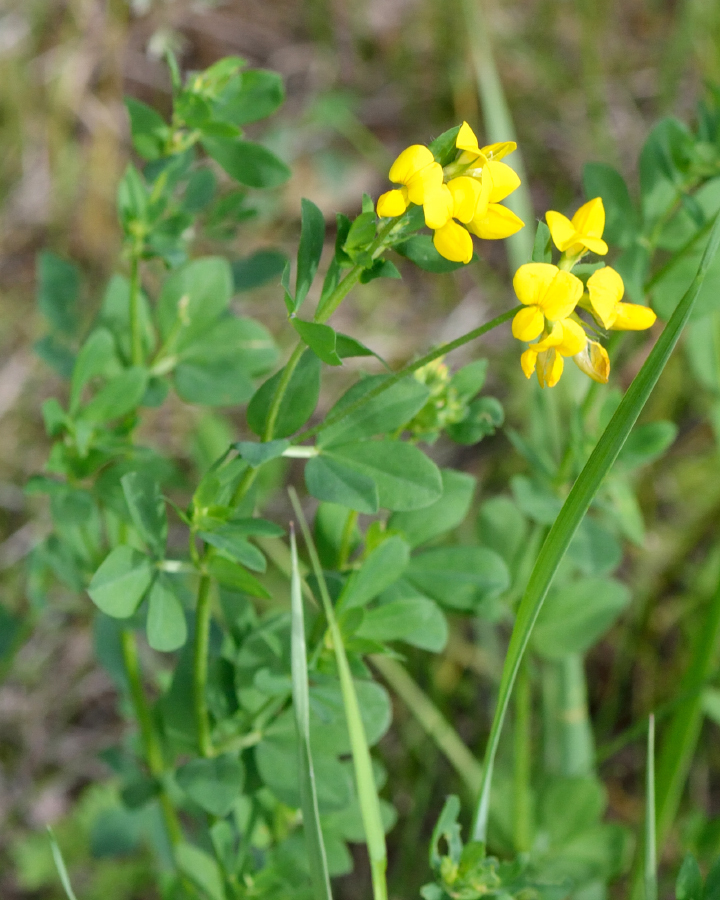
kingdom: Plantae
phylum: Tracheophyta
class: Magnoliopsida
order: Fabales
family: Fabaceae
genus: Lotus
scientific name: Lotus corniculatus
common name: Common bird's-foot-trefoil
